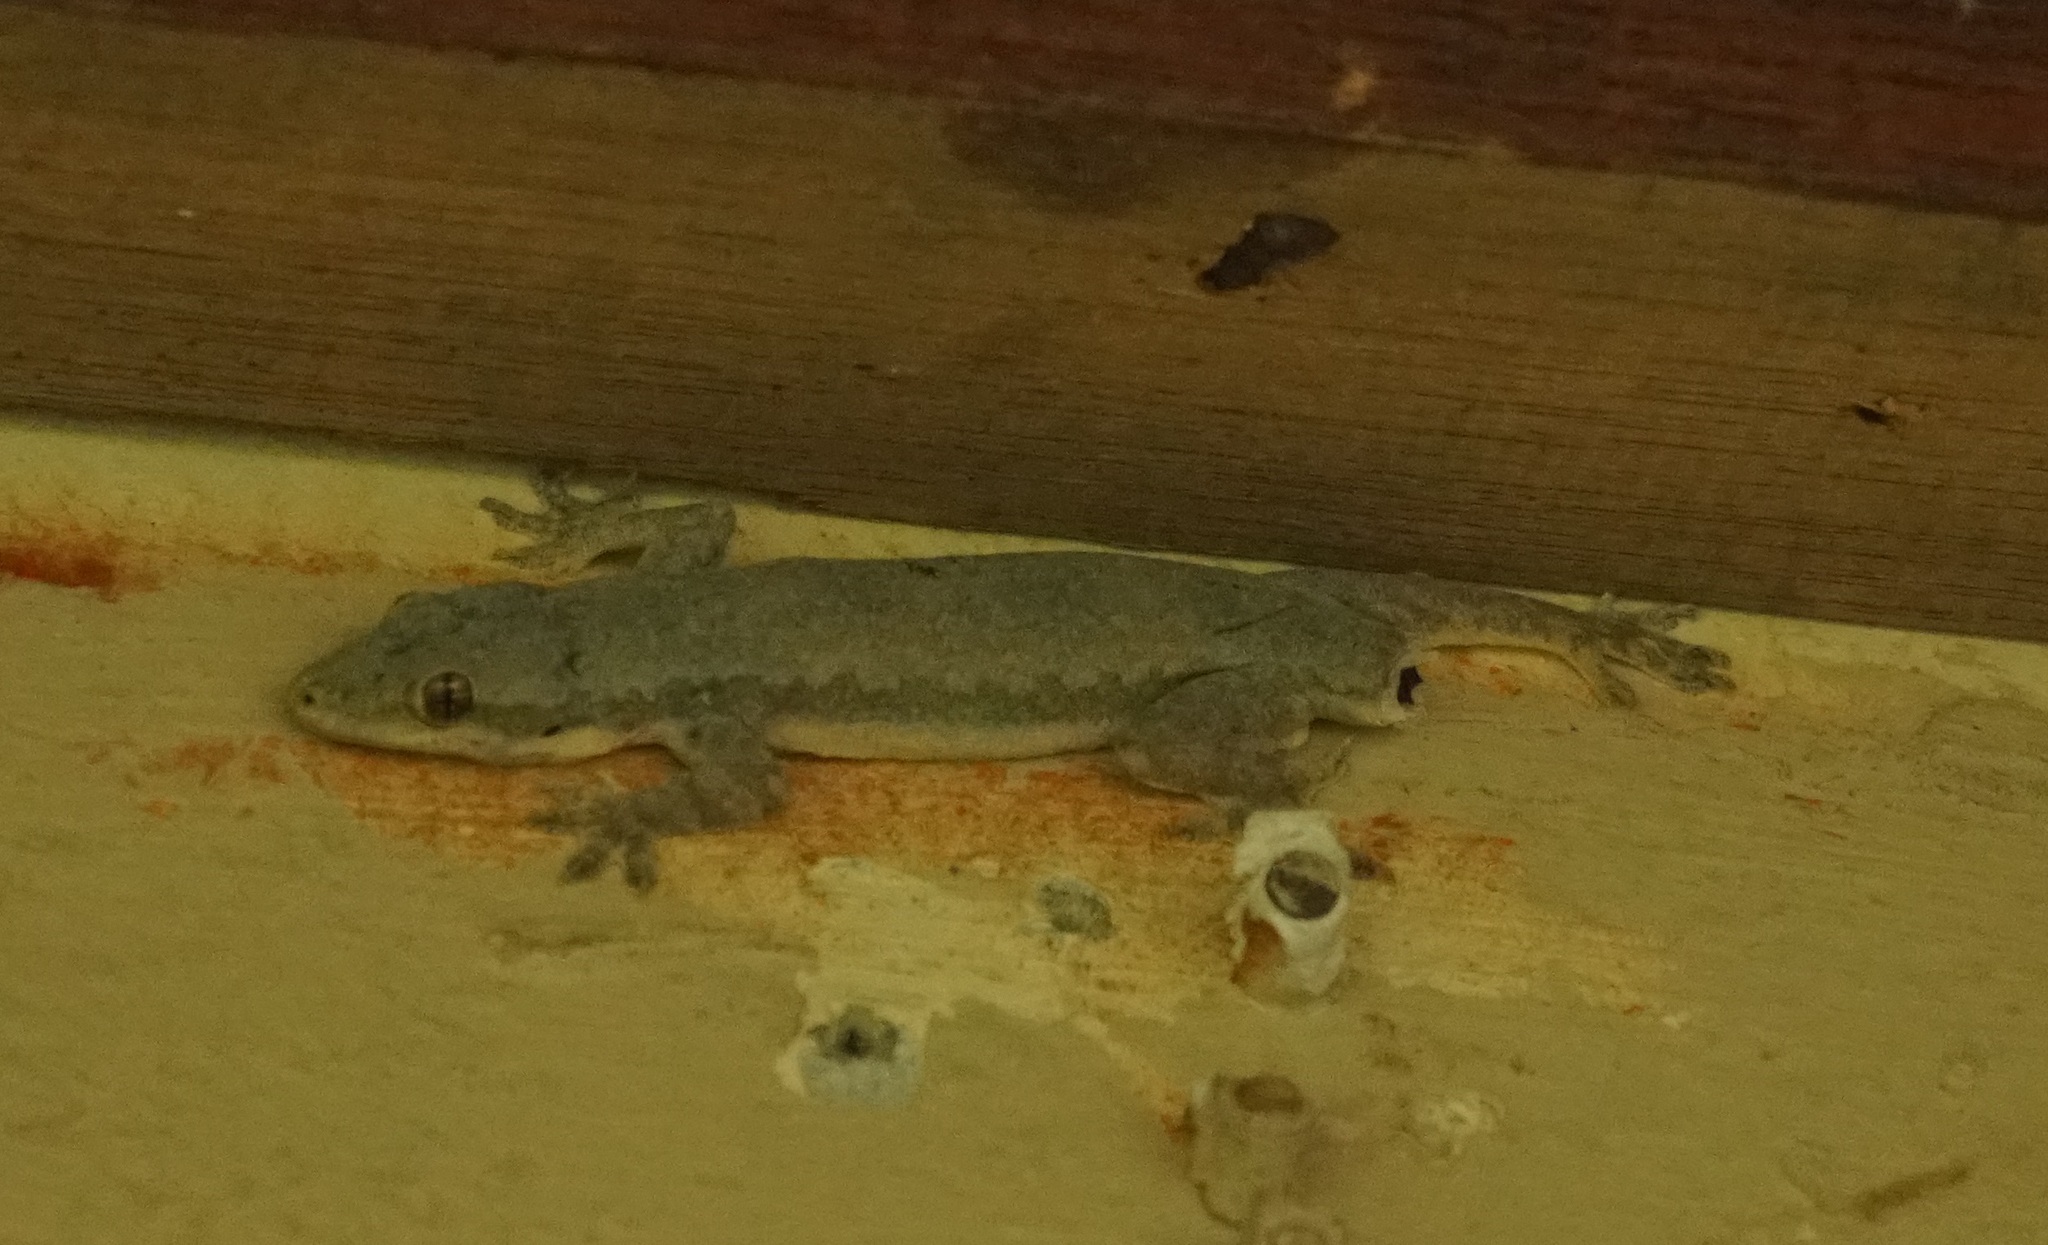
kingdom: Animalia
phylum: Chordata
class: Squamata
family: Gekkonidae
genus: Hemidactylus
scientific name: Hemidactylus platyurus
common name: Flat-tailed house gecko
